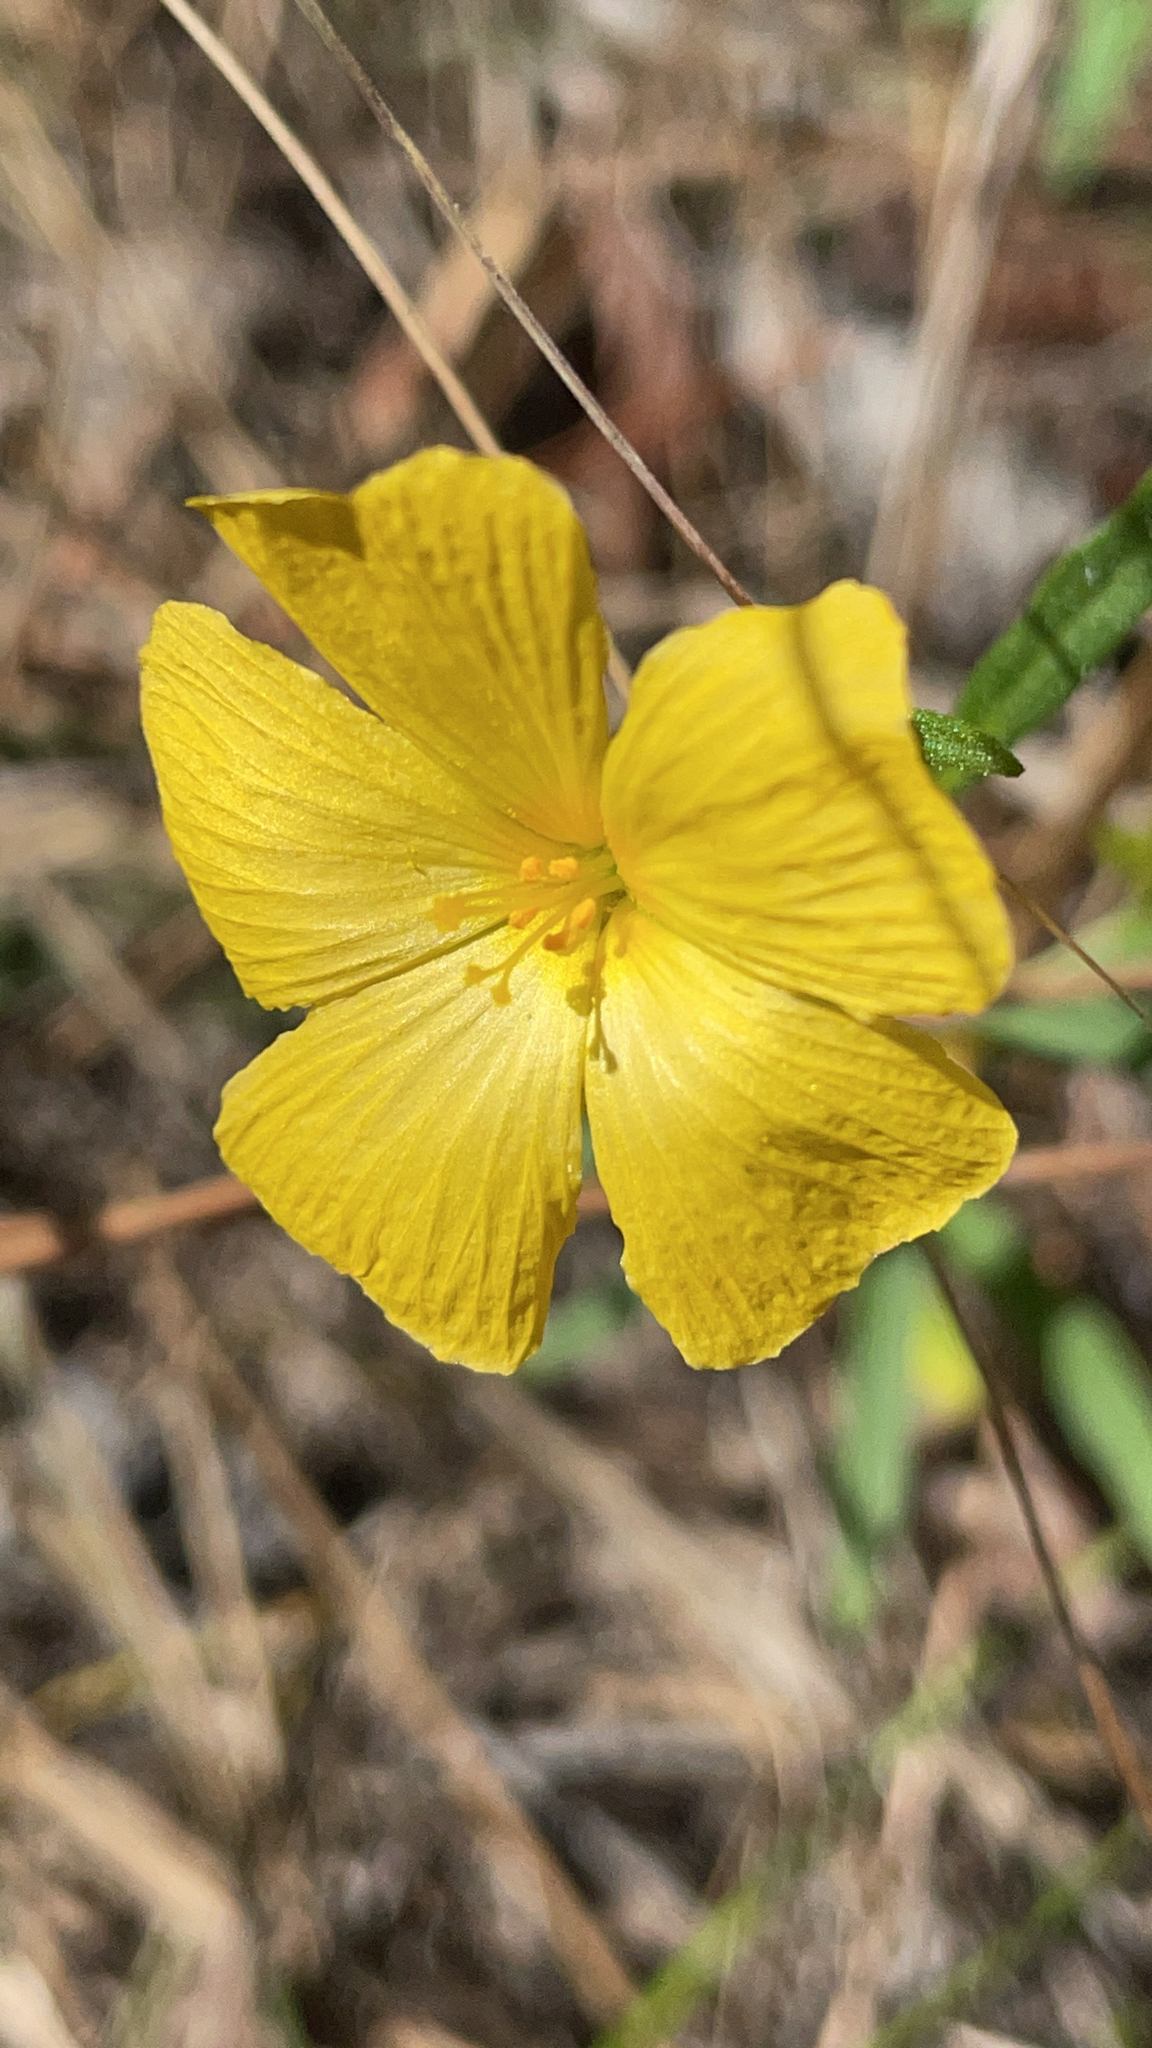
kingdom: Plantae
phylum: Tracheophyta
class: Magnoliopsida
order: Malpighiales
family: Turneraceae
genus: Piriqueta
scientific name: Piriqueta cistoides
